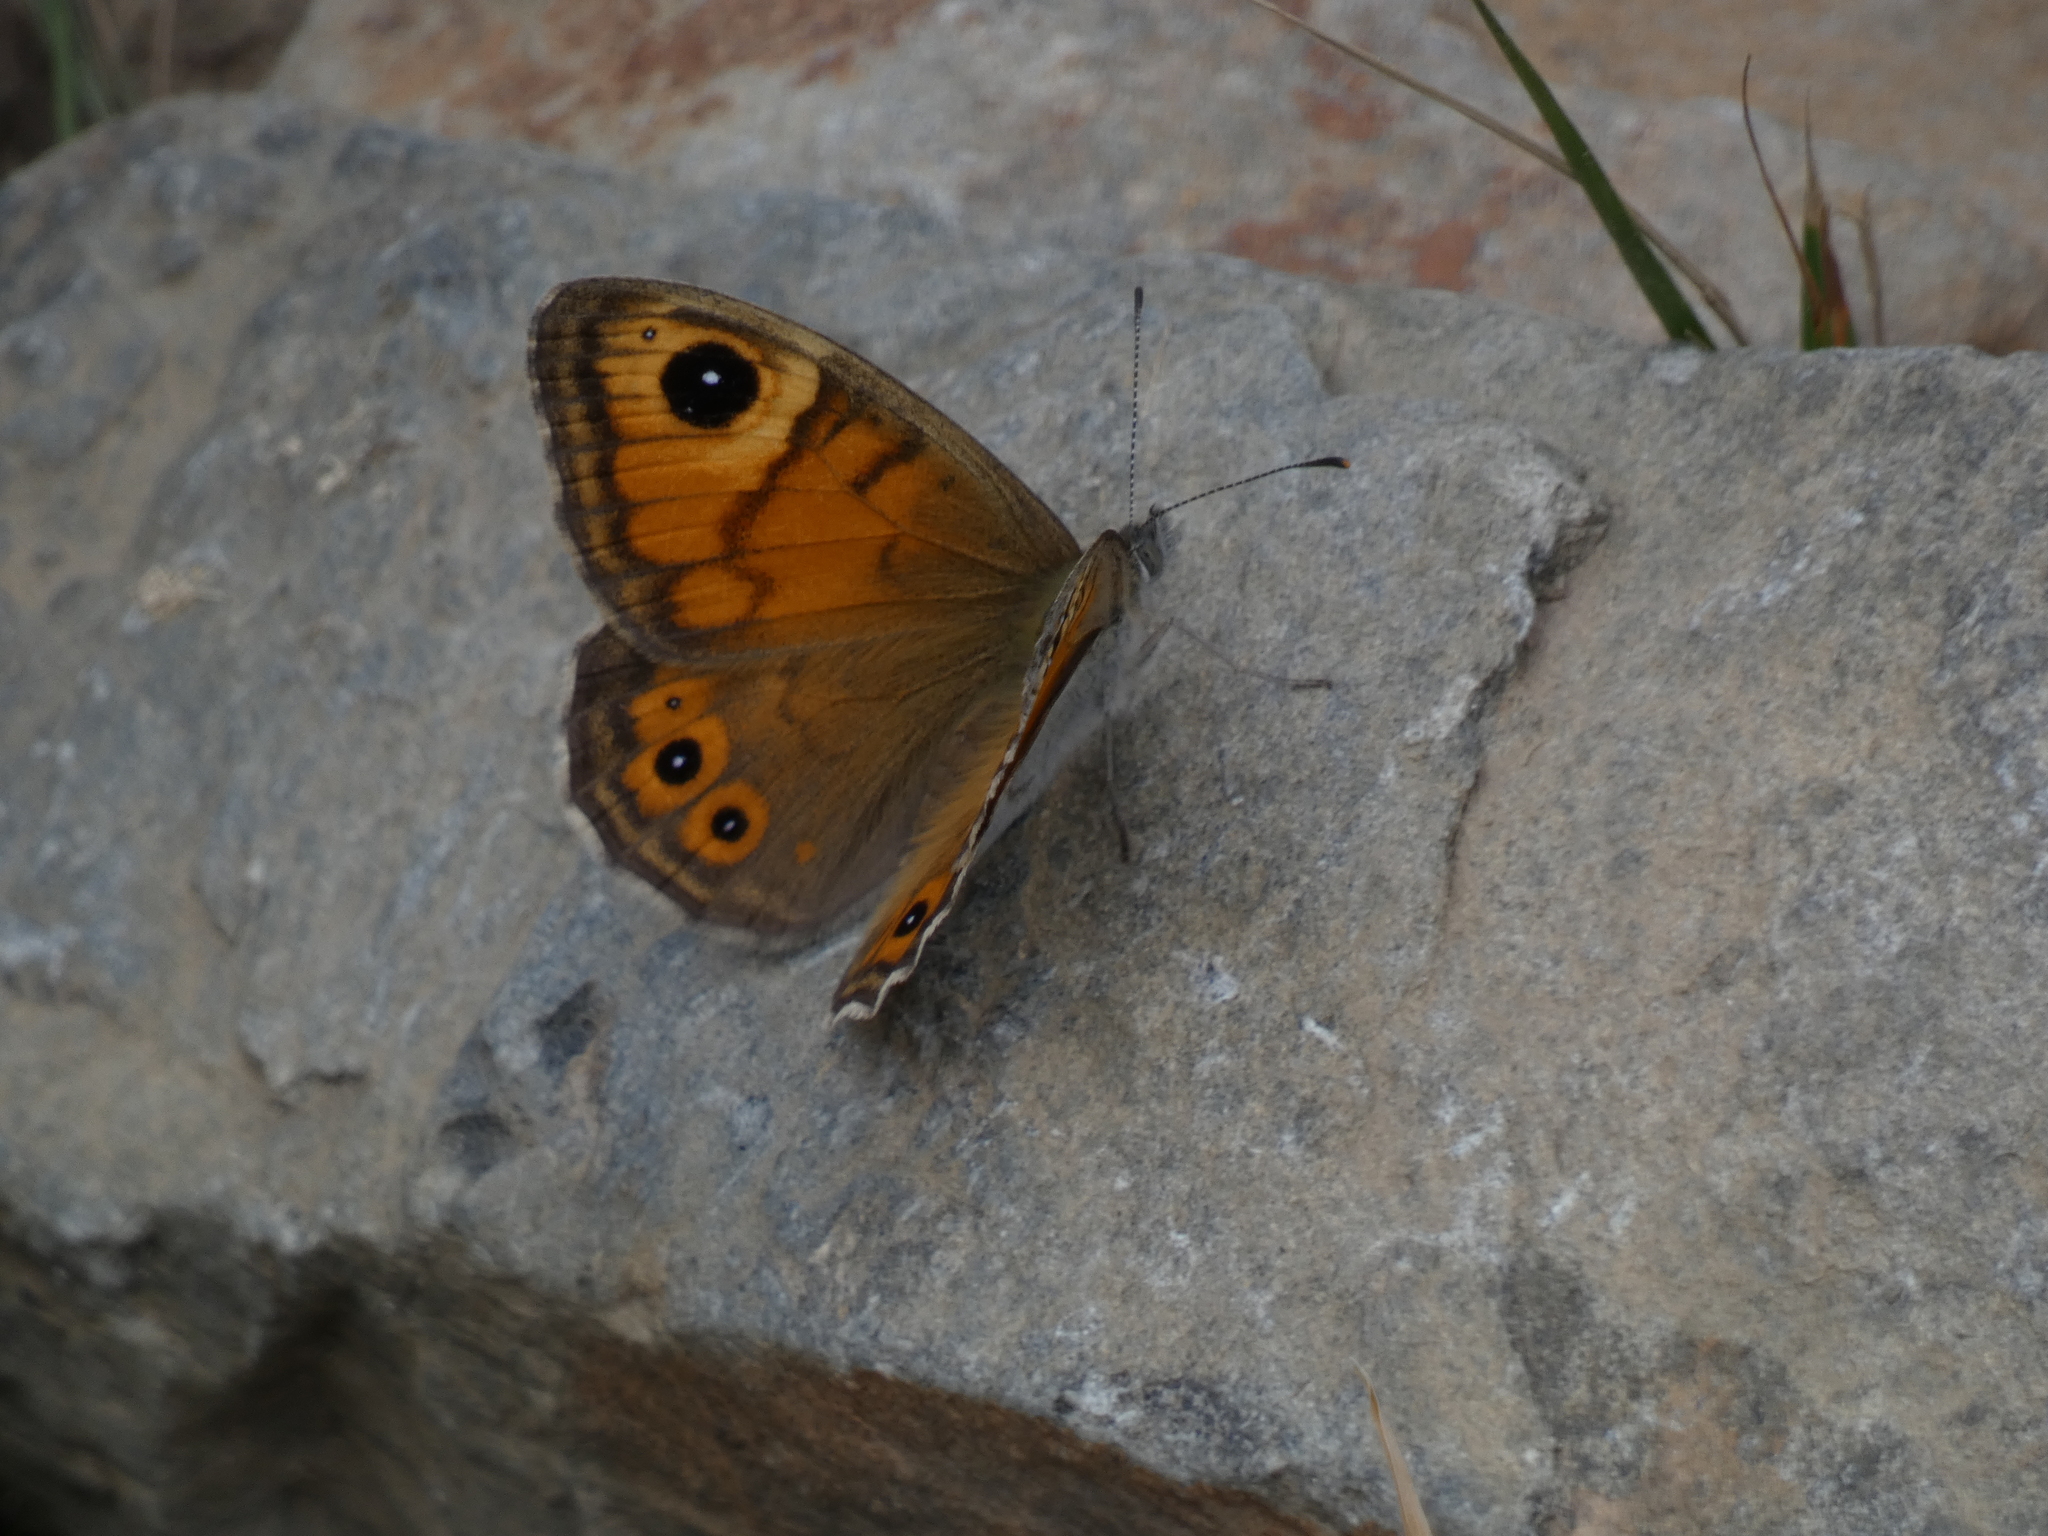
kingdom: Animalia
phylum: Arthropoda
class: Insecta
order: Lepidoptera
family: Nymphalidae
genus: Pararge
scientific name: Pararge Lasiommata maera
